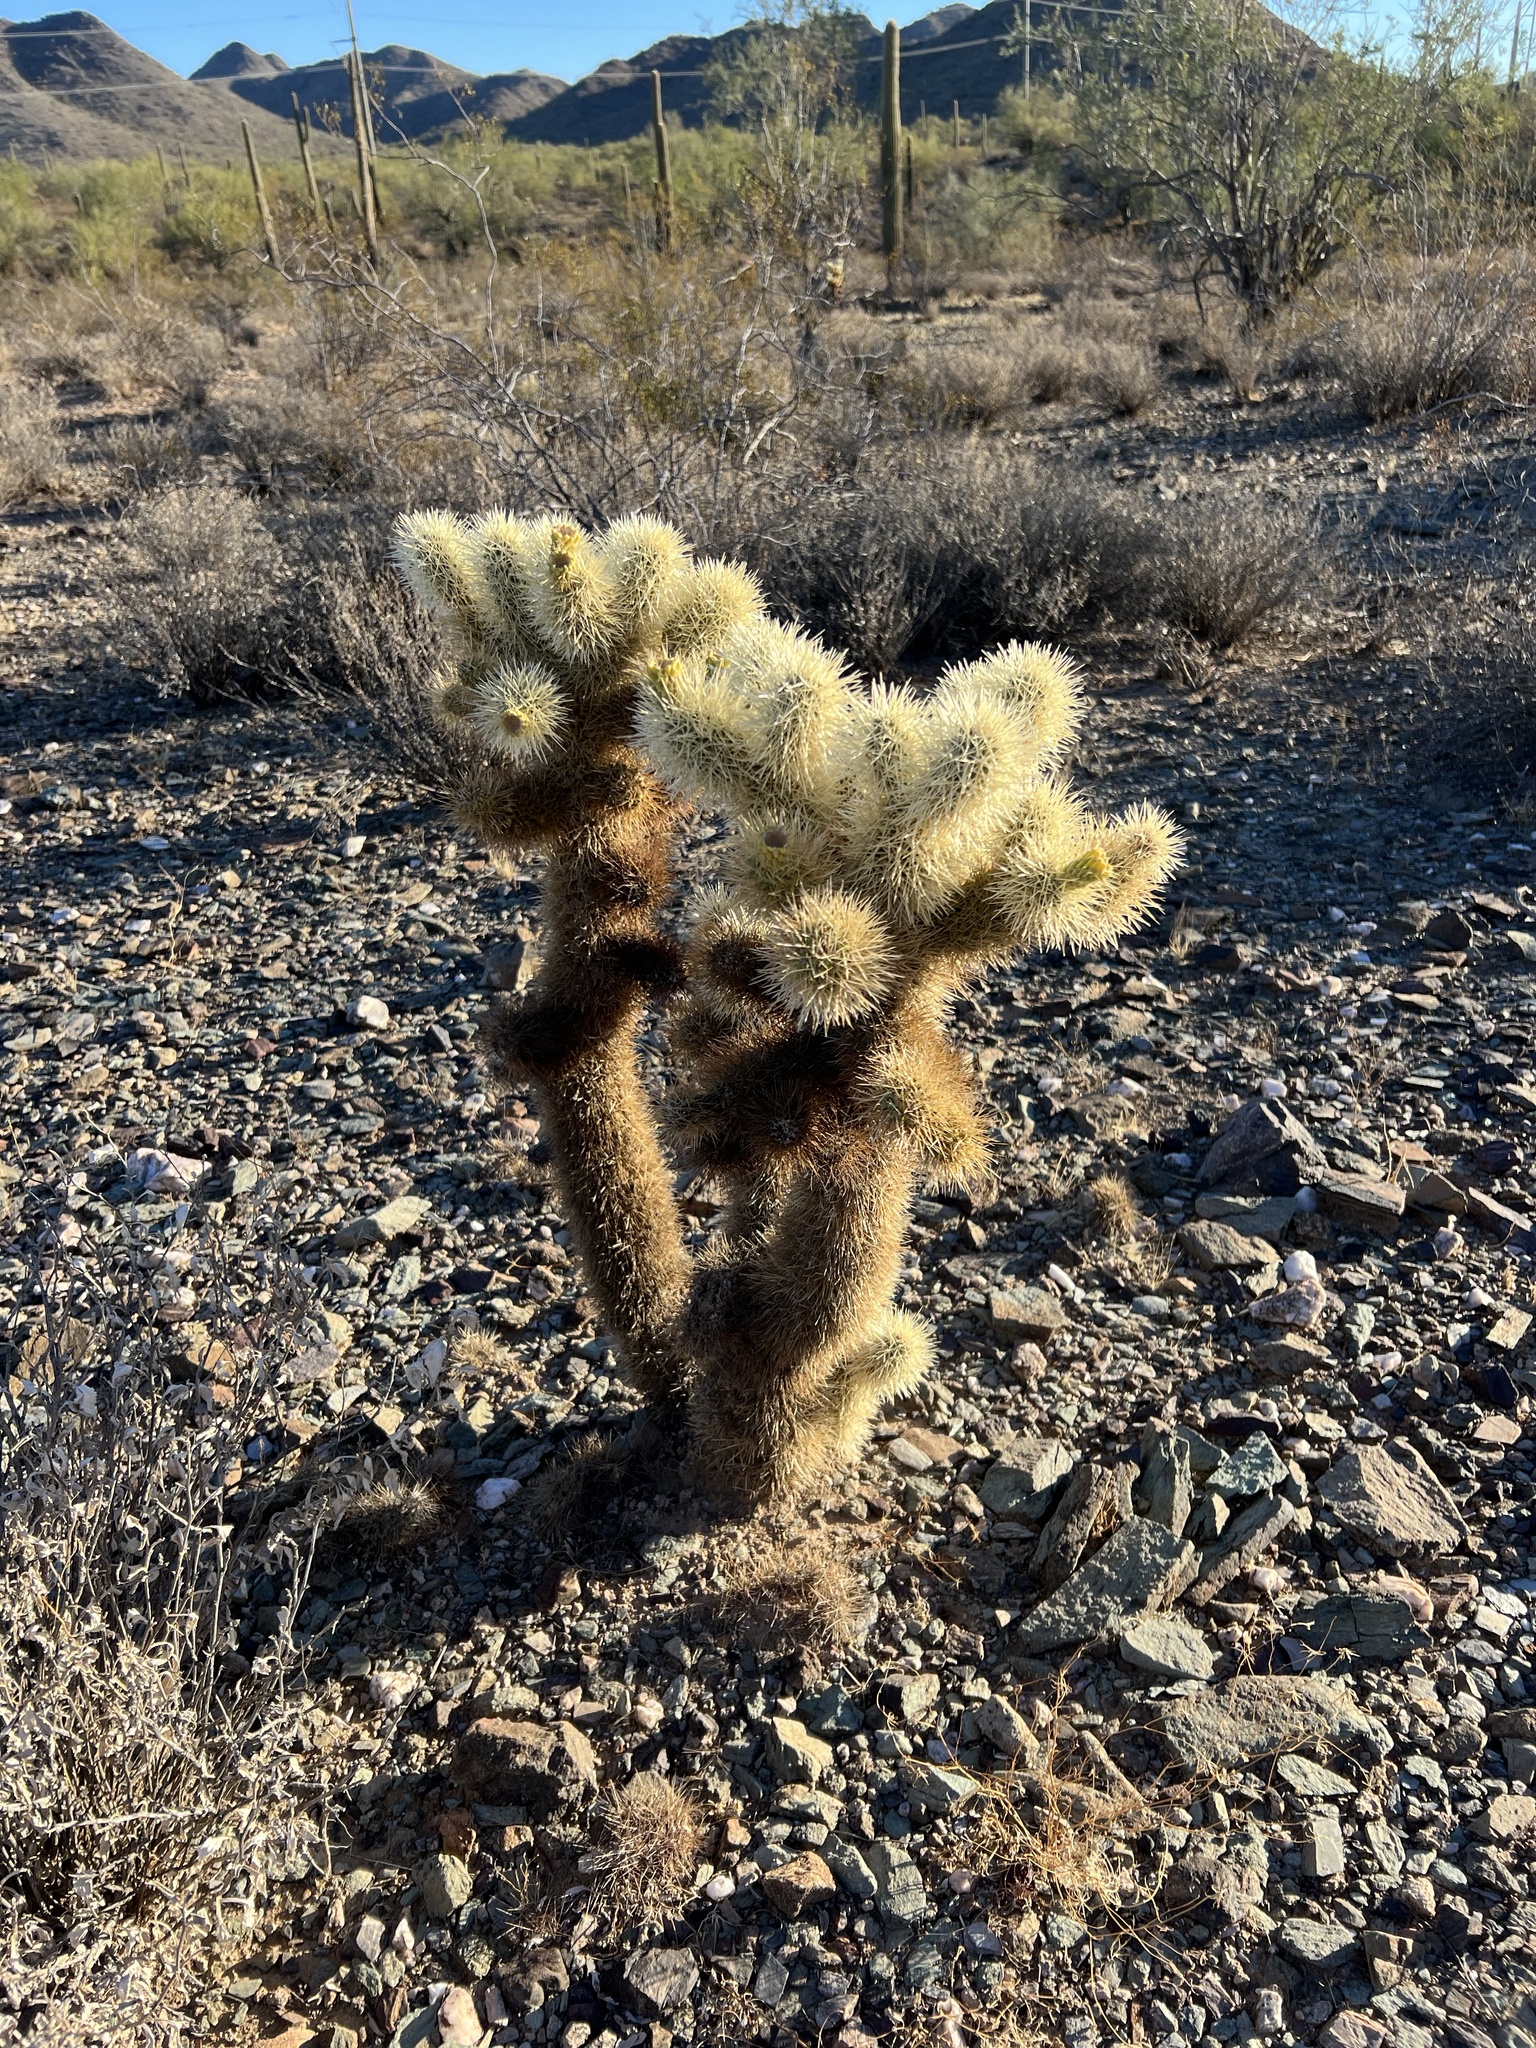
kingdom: Plantae
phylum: Tracheophyta
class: Magnoliopsida
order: Caryophyllales
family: Cactaceae
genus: Cylindropuntia
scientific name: Cylindropuntia fosbergii
